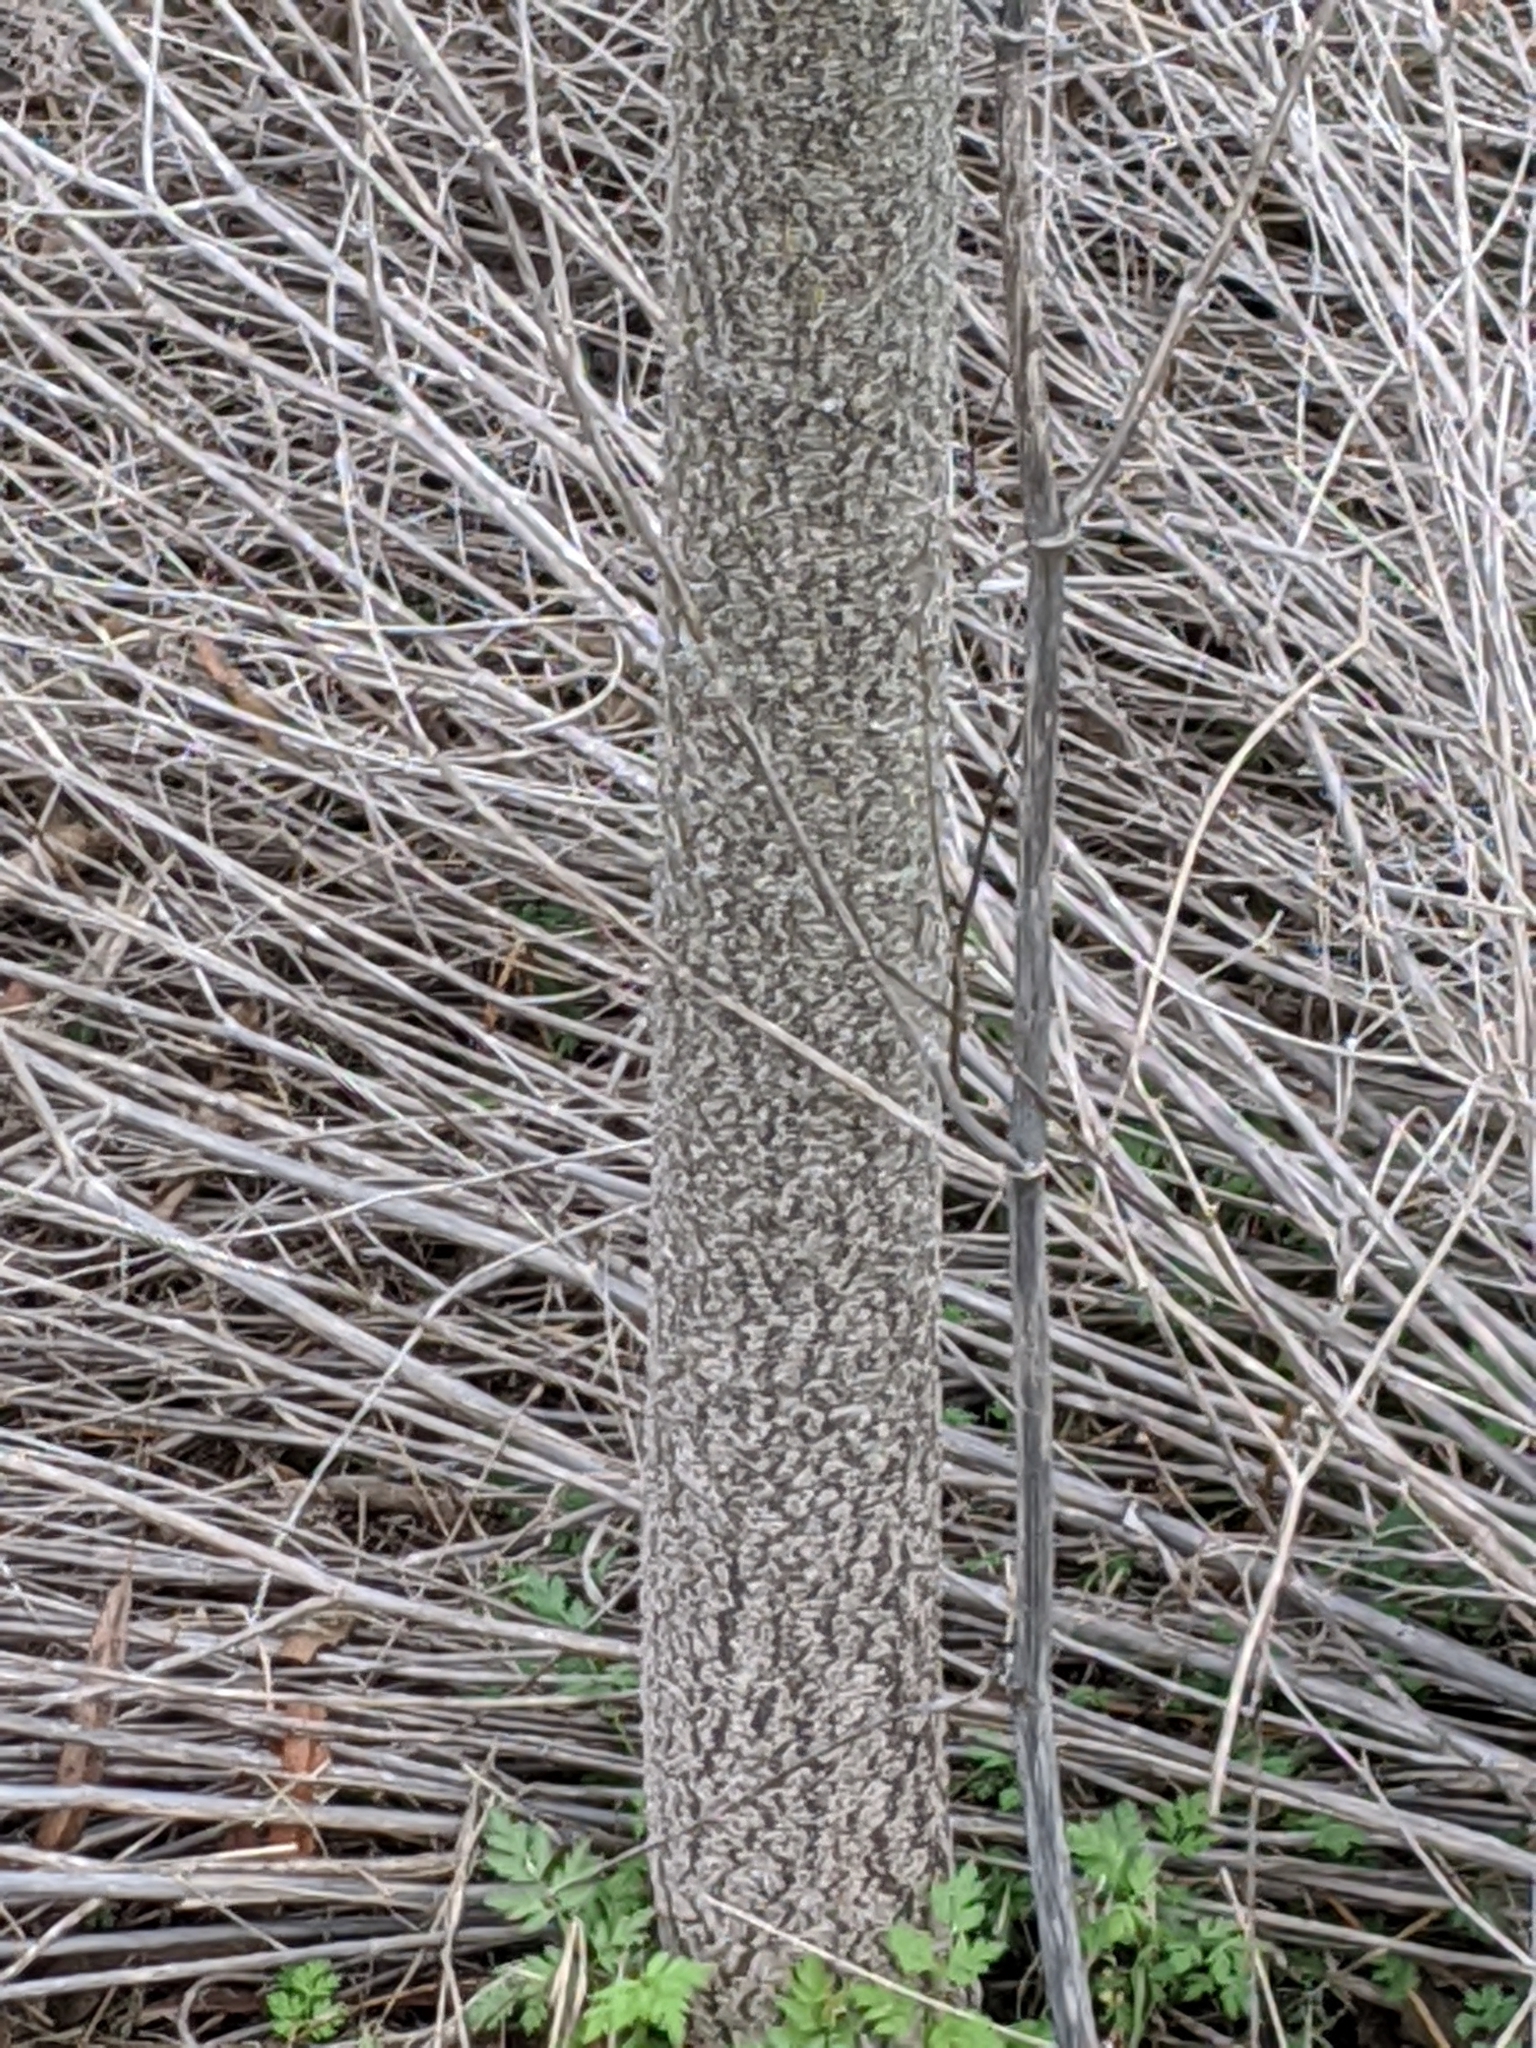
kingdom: Plantae
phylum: Tracheophyta
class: Magnoliopsida
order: Fabales
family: Fabaceae
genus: Parkinsonia
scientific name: Parkinsonia aculeata
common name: Jerusalem thorn
